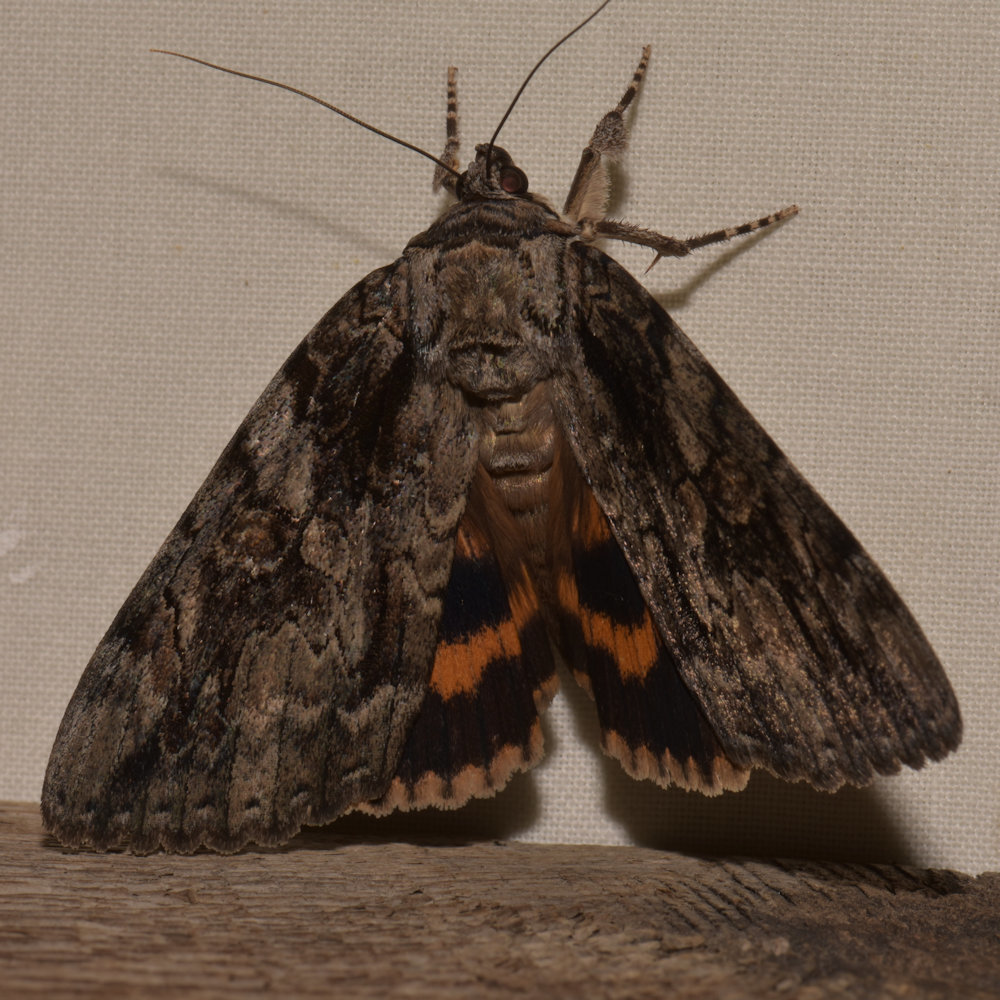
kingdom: Animalia
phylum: Arthropoda
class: Insecta
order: Lepidoptera
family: Erebidae
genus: Catocala
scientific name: Catocala neogama
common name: Bride underwing
